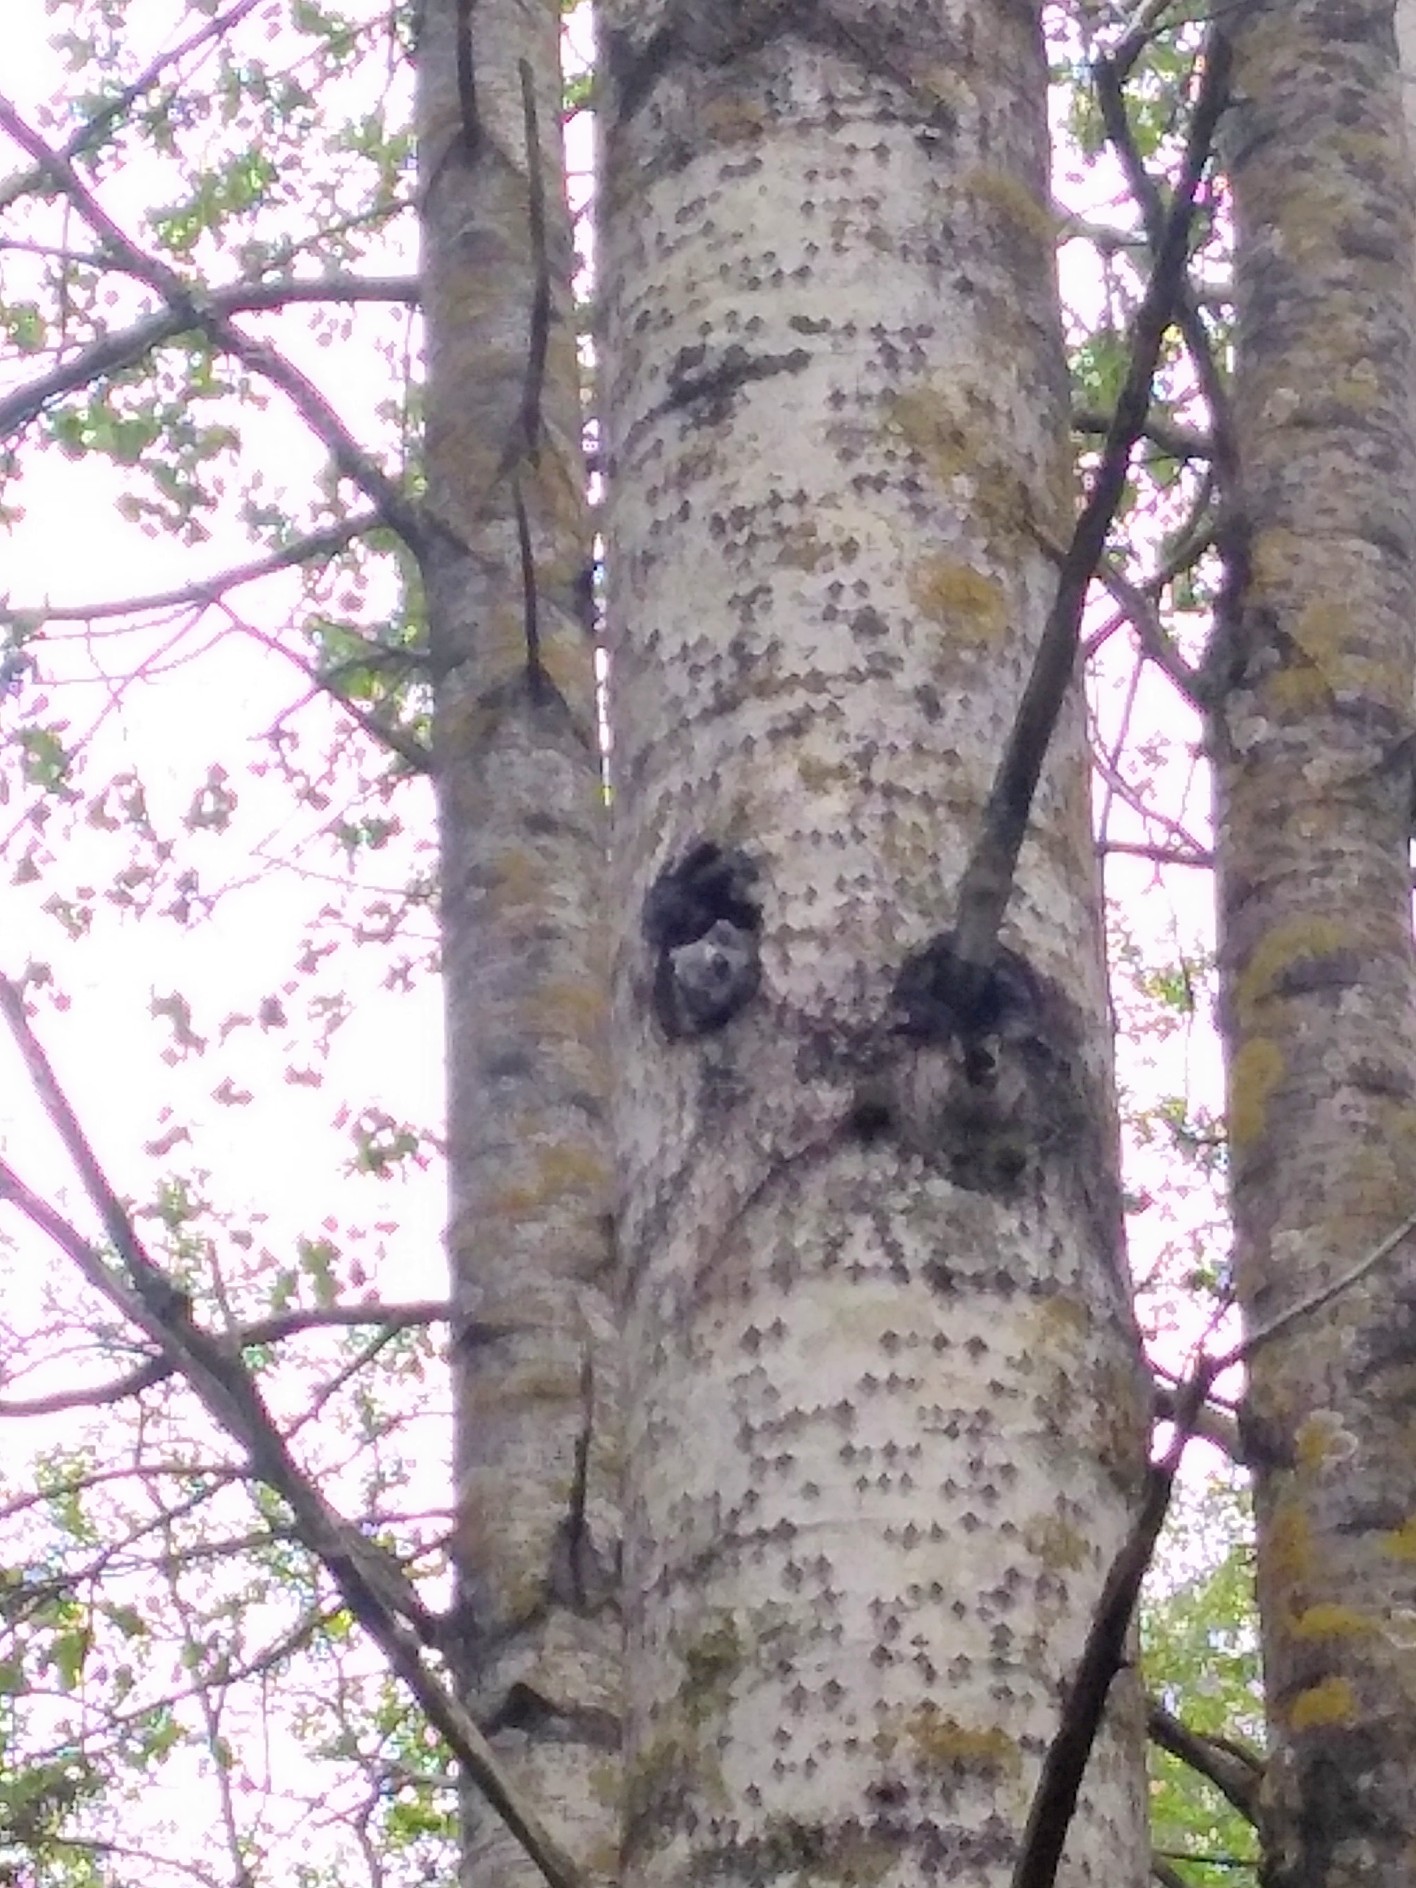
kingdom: Animalia
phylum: Chordata
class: Mammalia
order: Rodentia
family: Sciuridae
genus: Pteromys
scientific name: Pteromys volans
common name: Siberian flying squirrel
